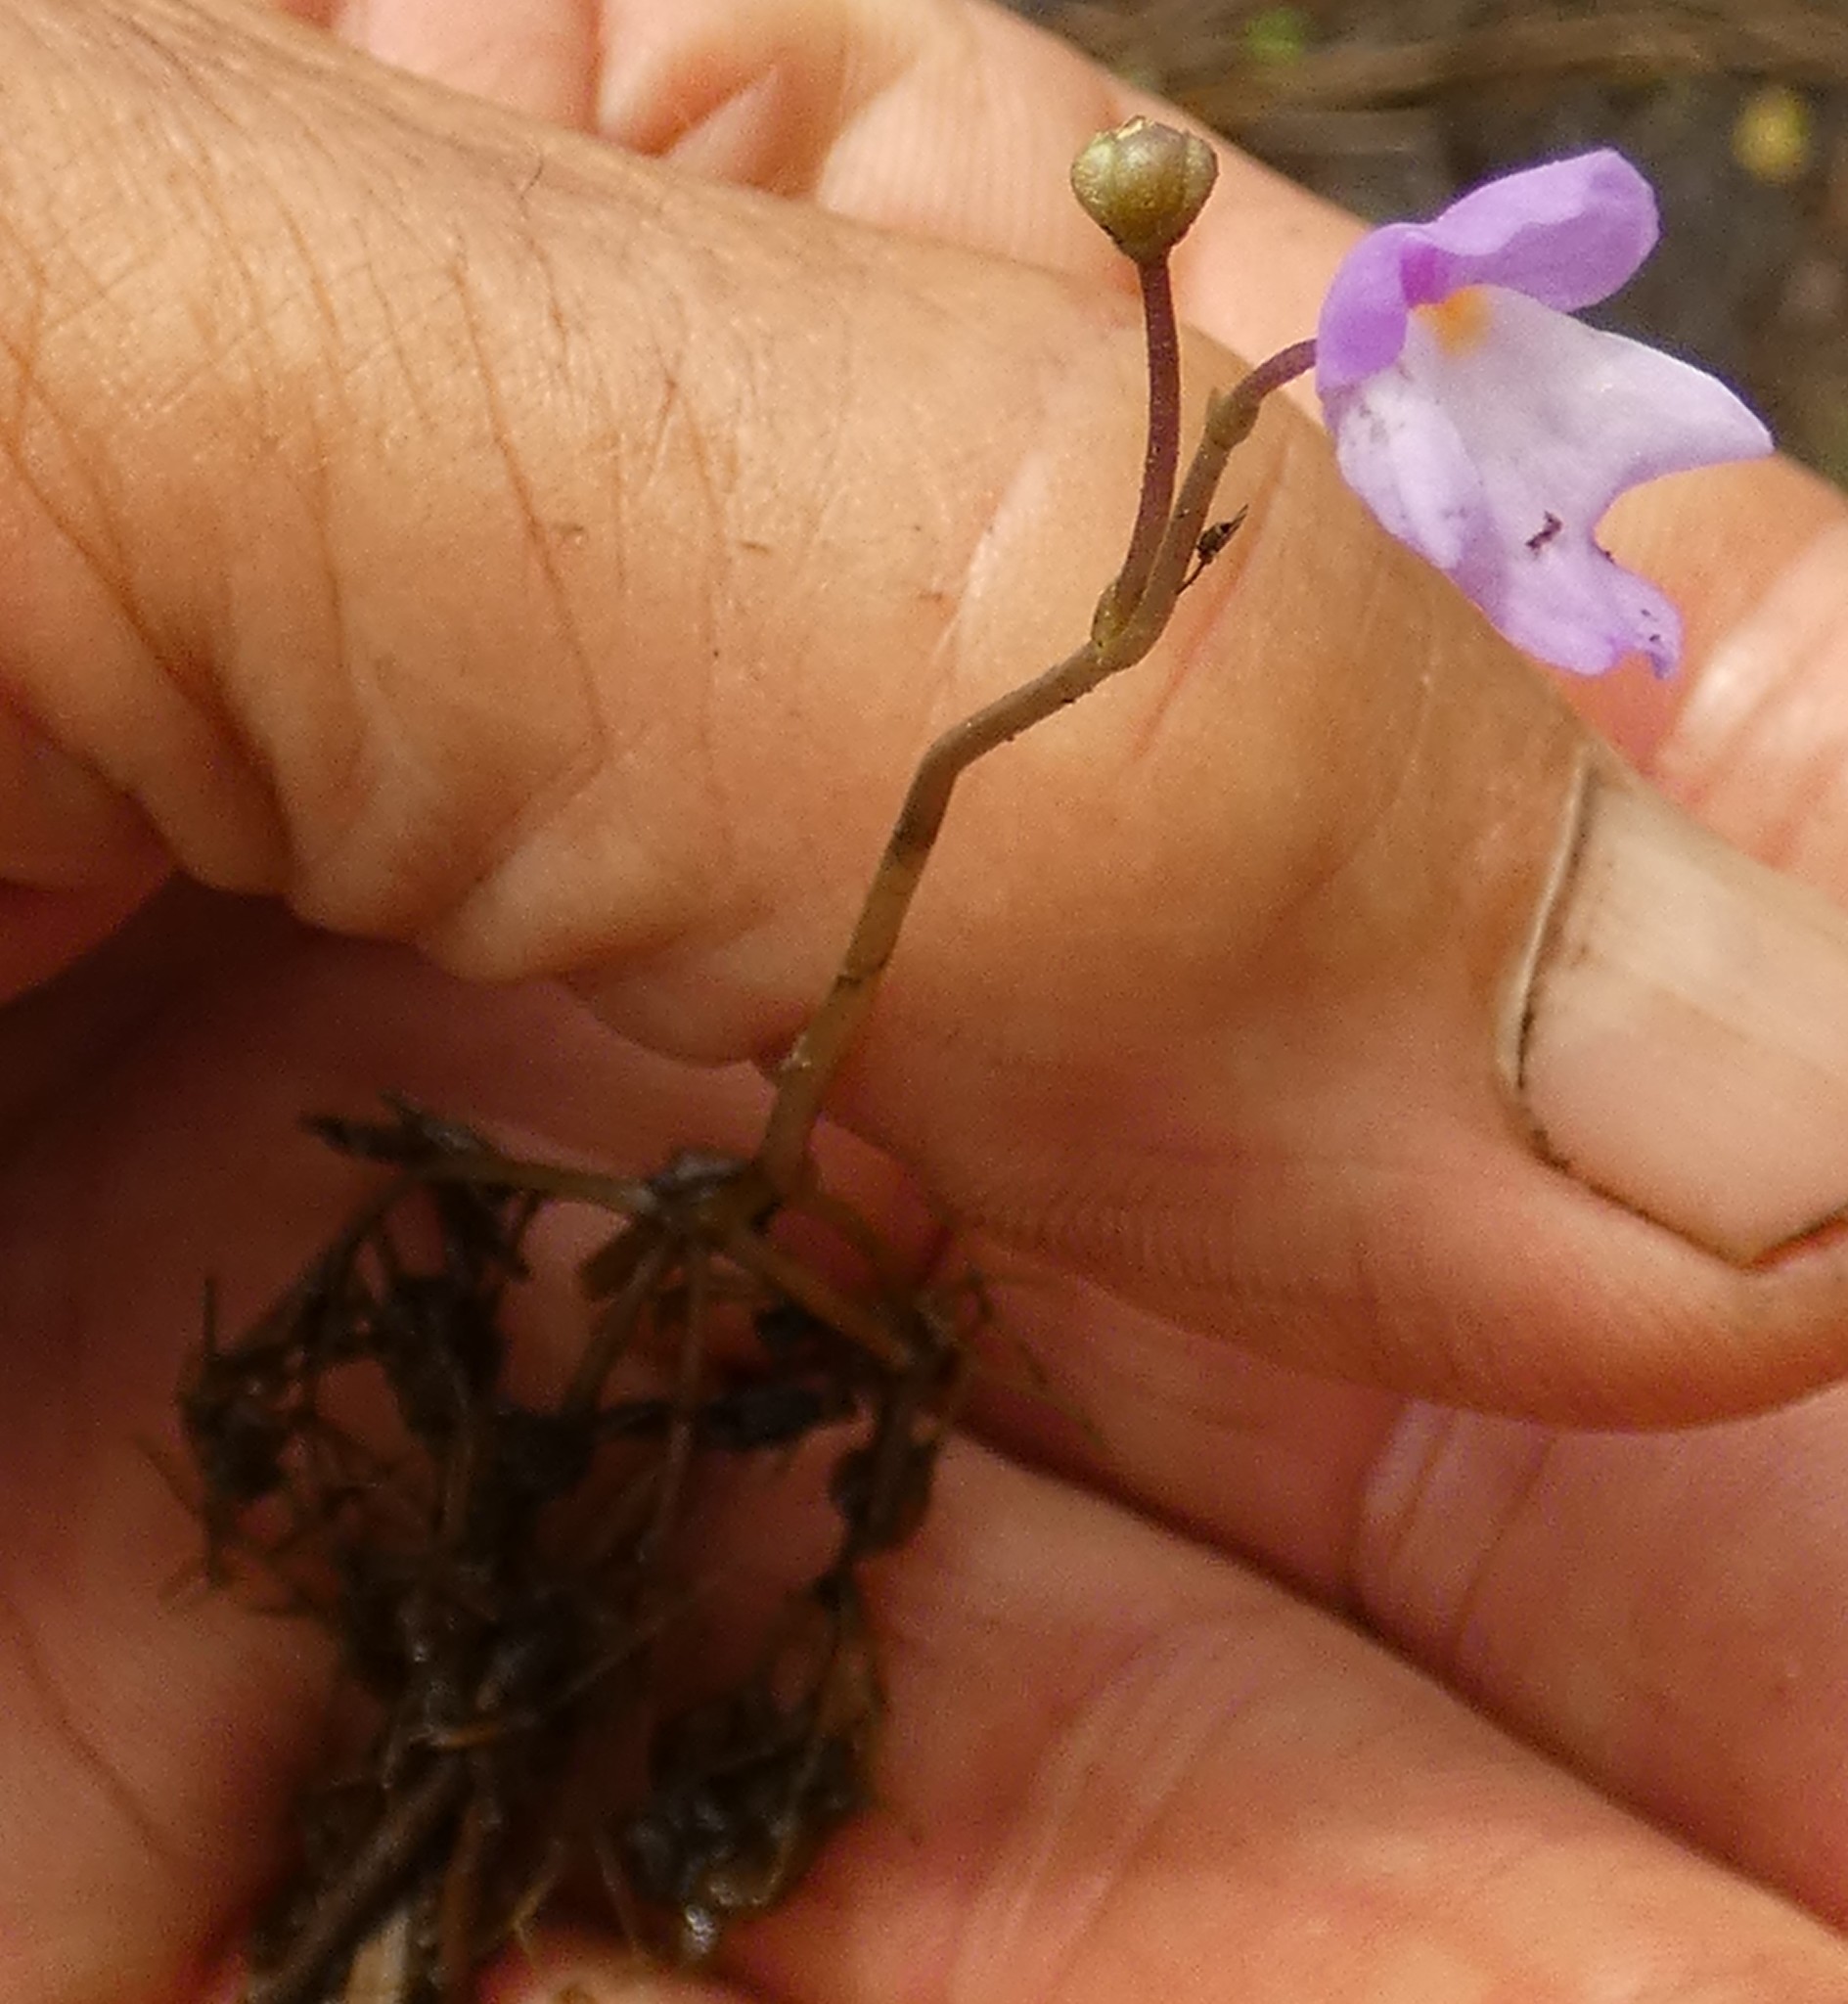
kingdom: Plantae
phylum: Tracheophyta
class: Magnoliopsida
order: Lamiales
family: Lentibulariaceae
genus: Utricularia
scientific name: Utricularia purpurea
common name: Eastern purple bladderwort
